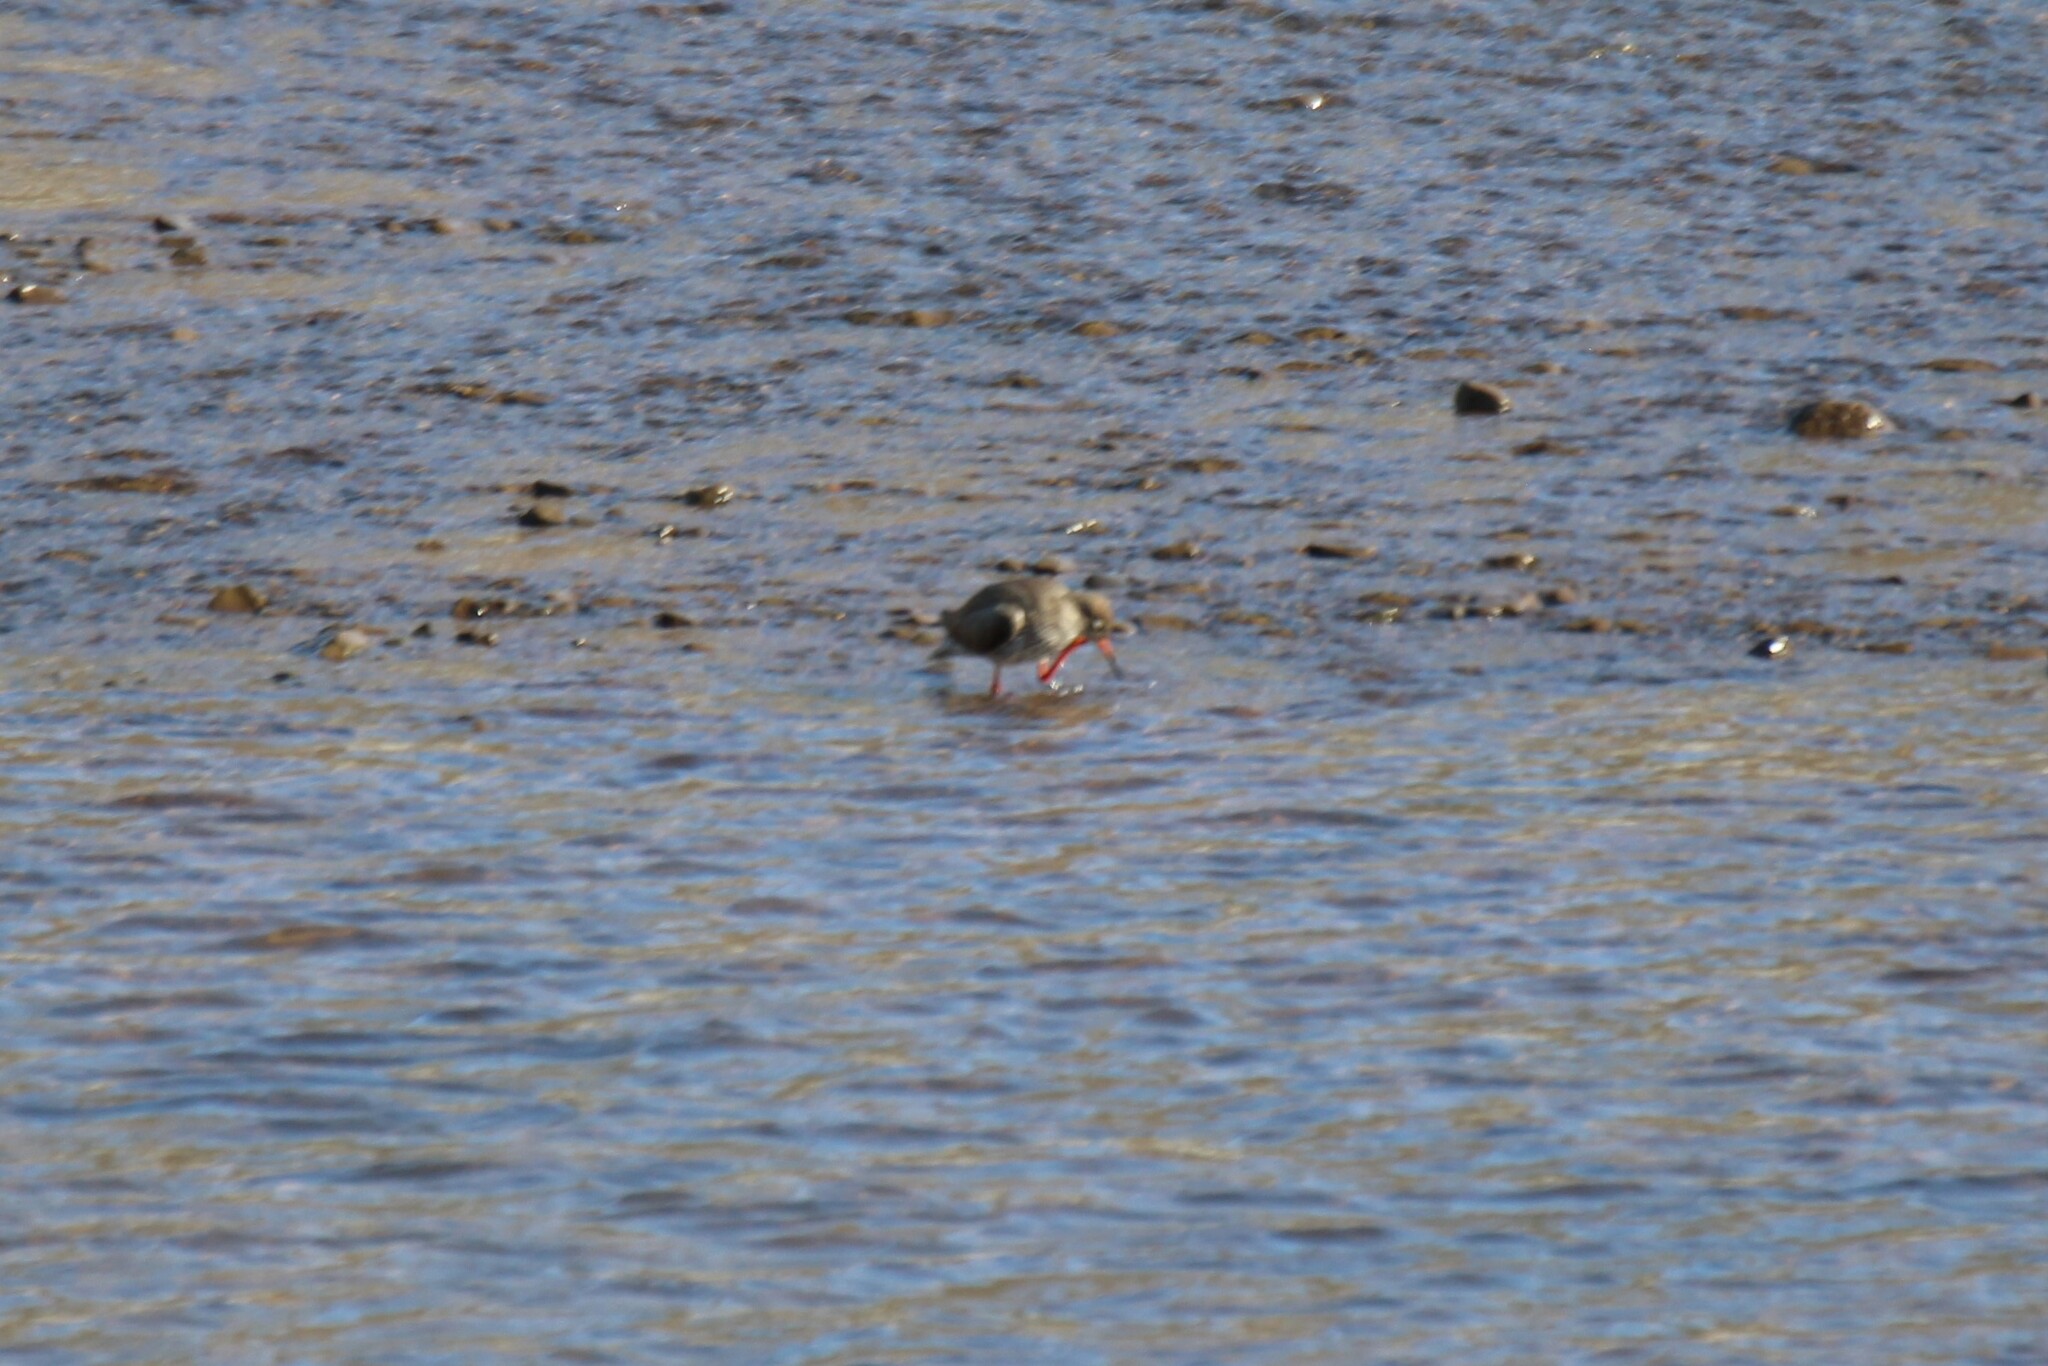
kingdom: Animalia
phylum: Chordata
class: Aves
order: Charadriiformes
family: Scolopacidae
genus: Tringa
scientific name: Tringa totanus
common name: Common redshank
